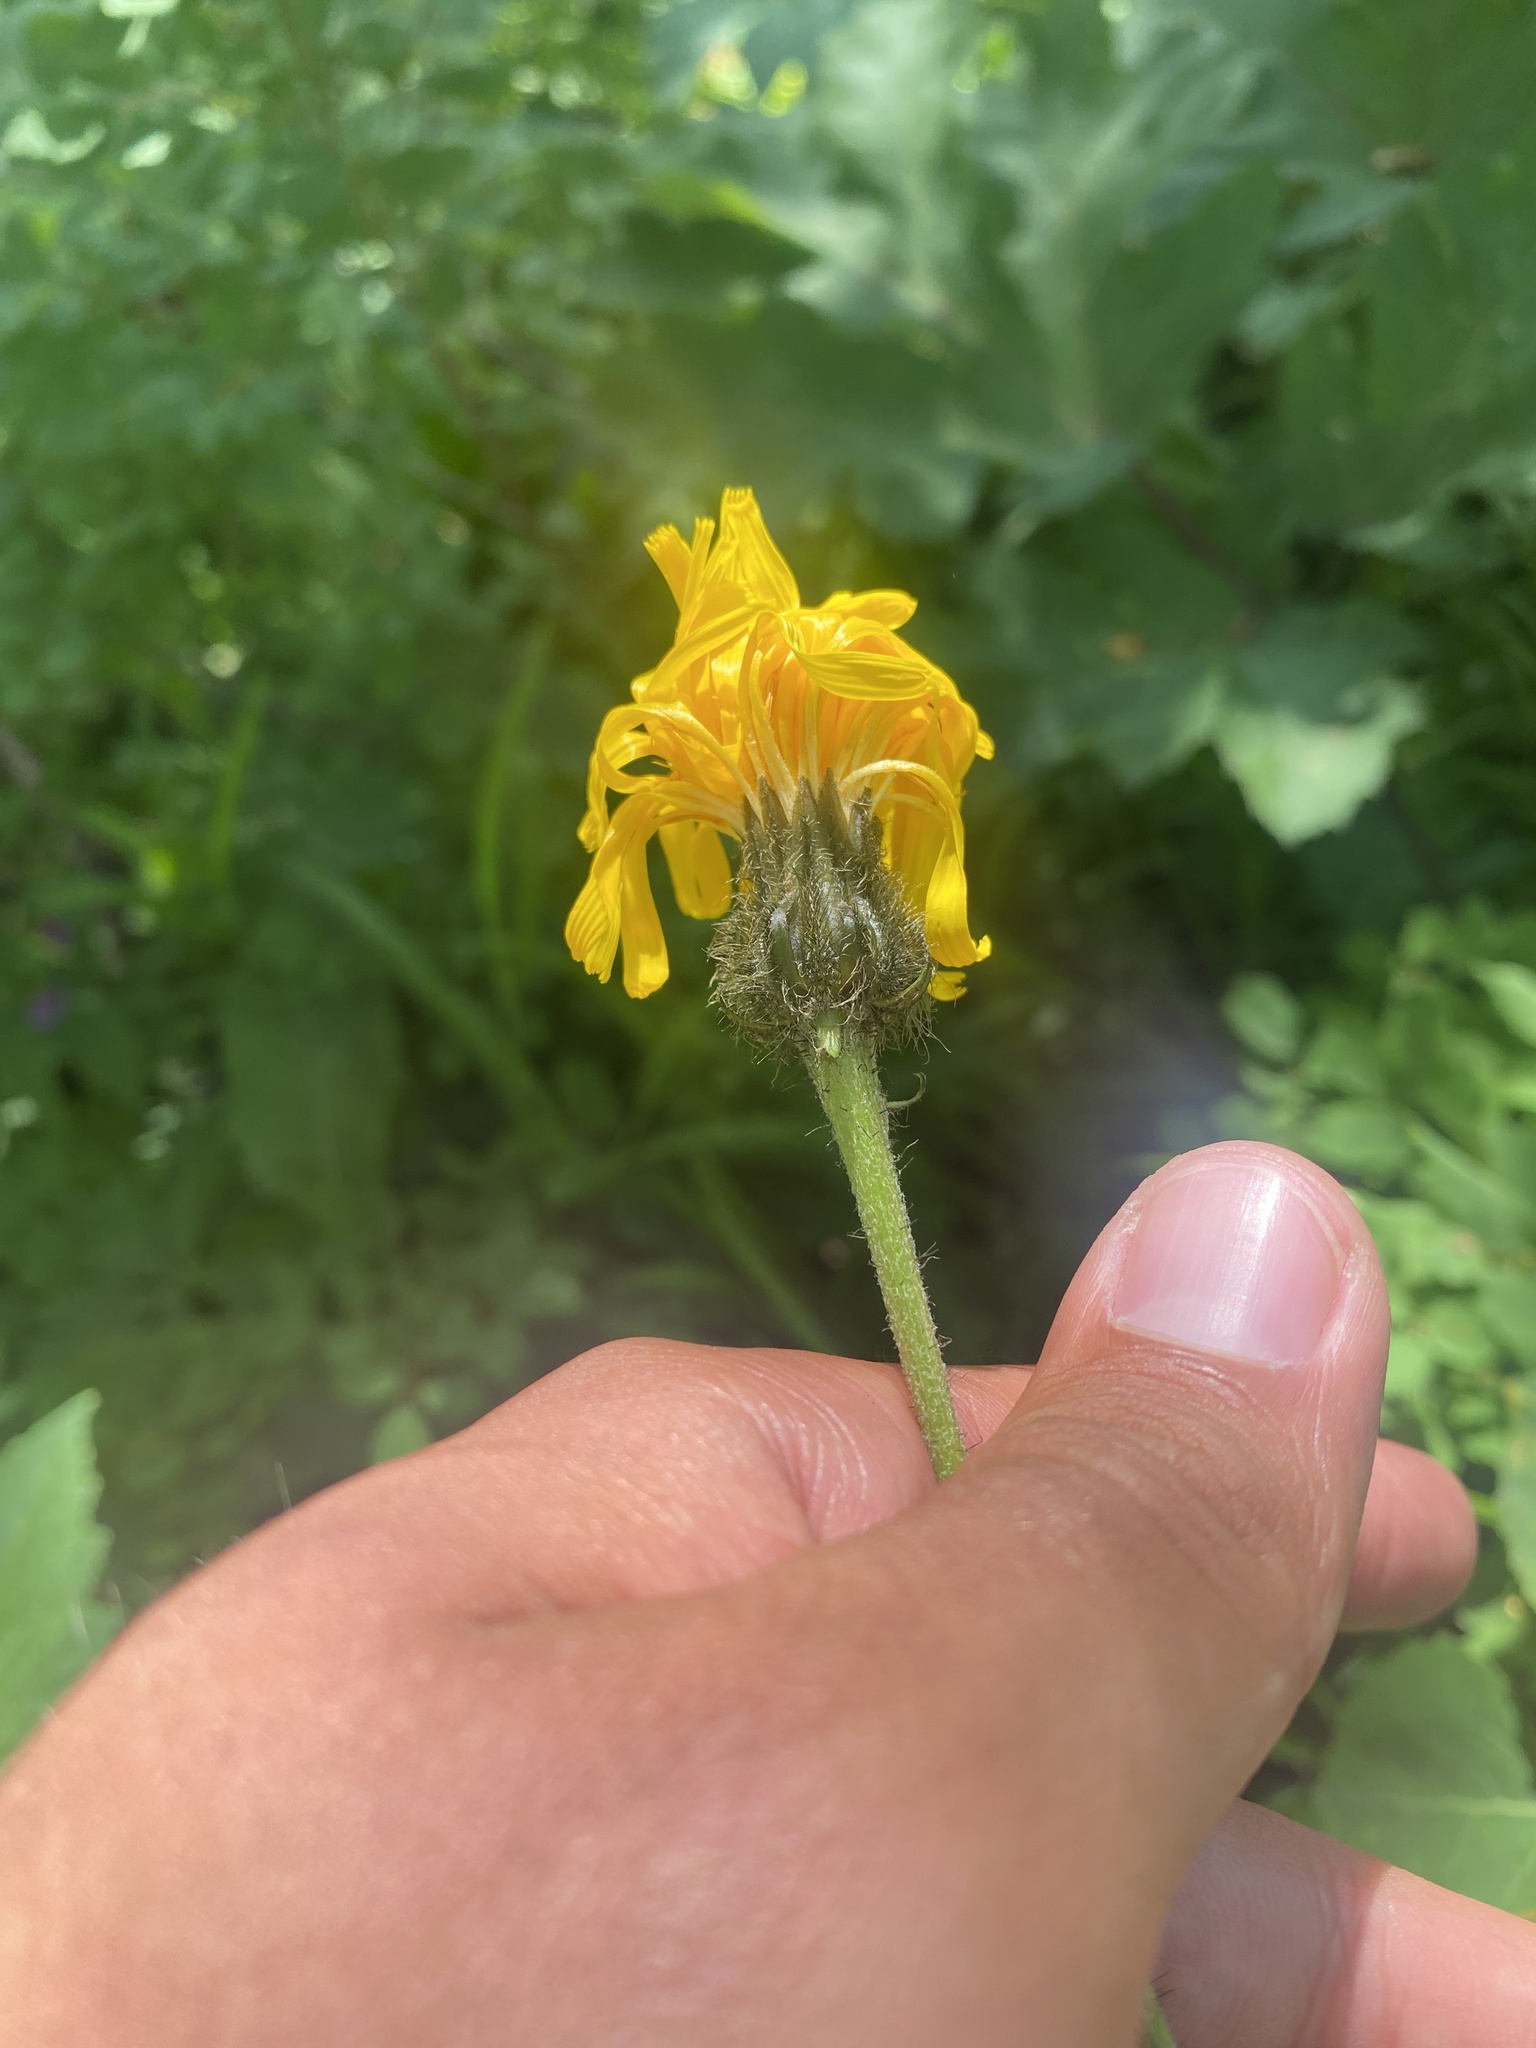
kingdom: Plantae
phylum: Tracheophyta
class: Magnoliopsida
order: Asterales
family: Asteraceae
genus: Crepis
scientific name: Crepis sibirica
